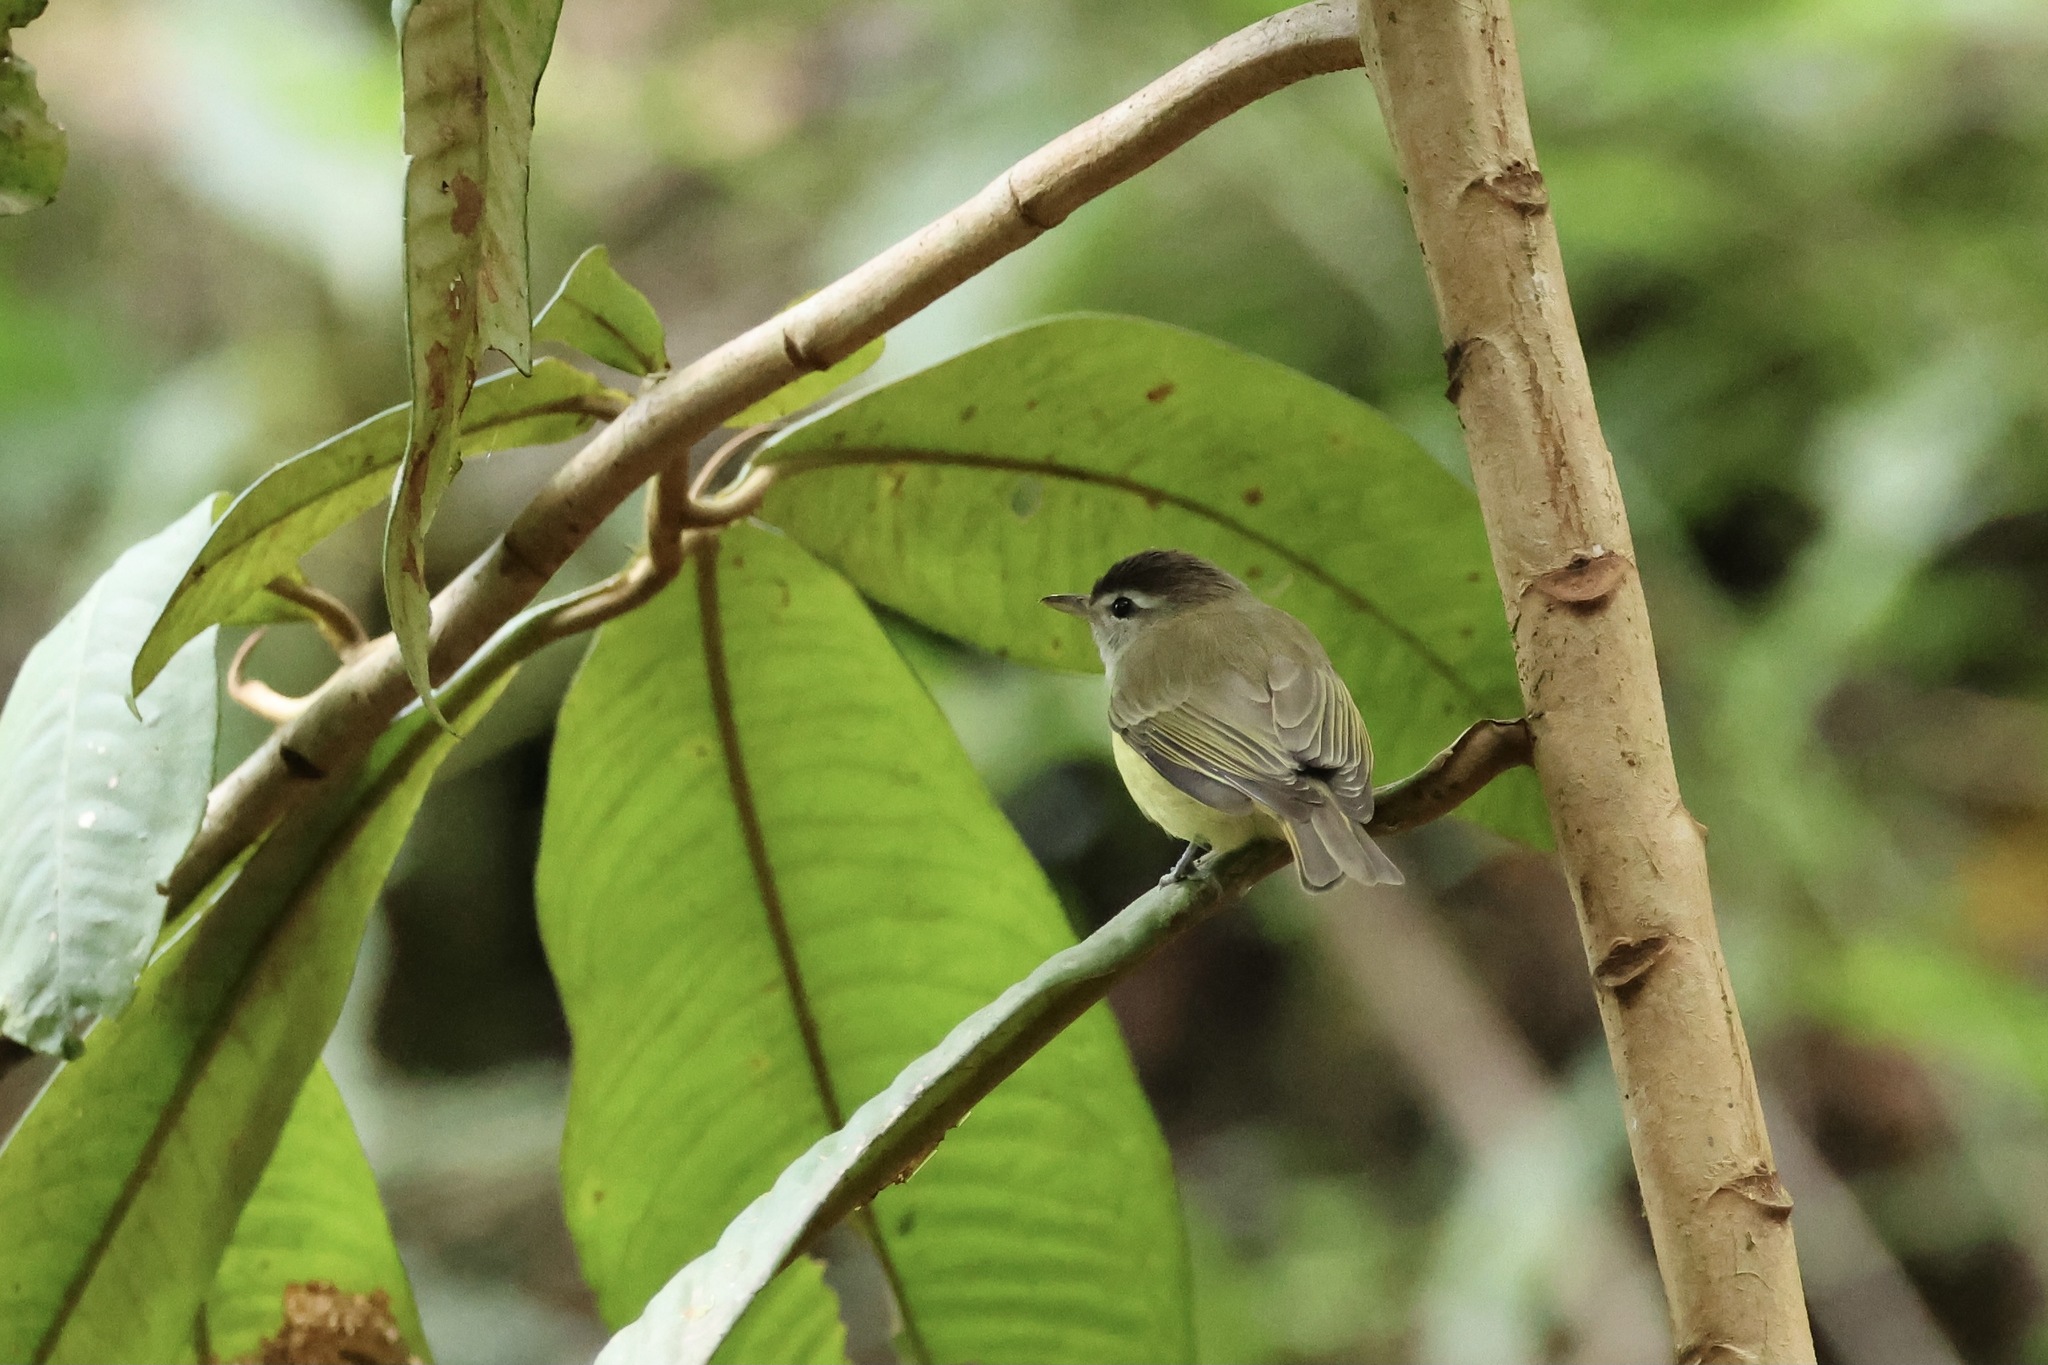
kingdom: Animalia
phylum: Chordata
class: Aves
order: Passeriformes
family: Vireonidae
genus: Vireo
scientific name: Vireo leucophrys
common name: Brown-capped vireo
